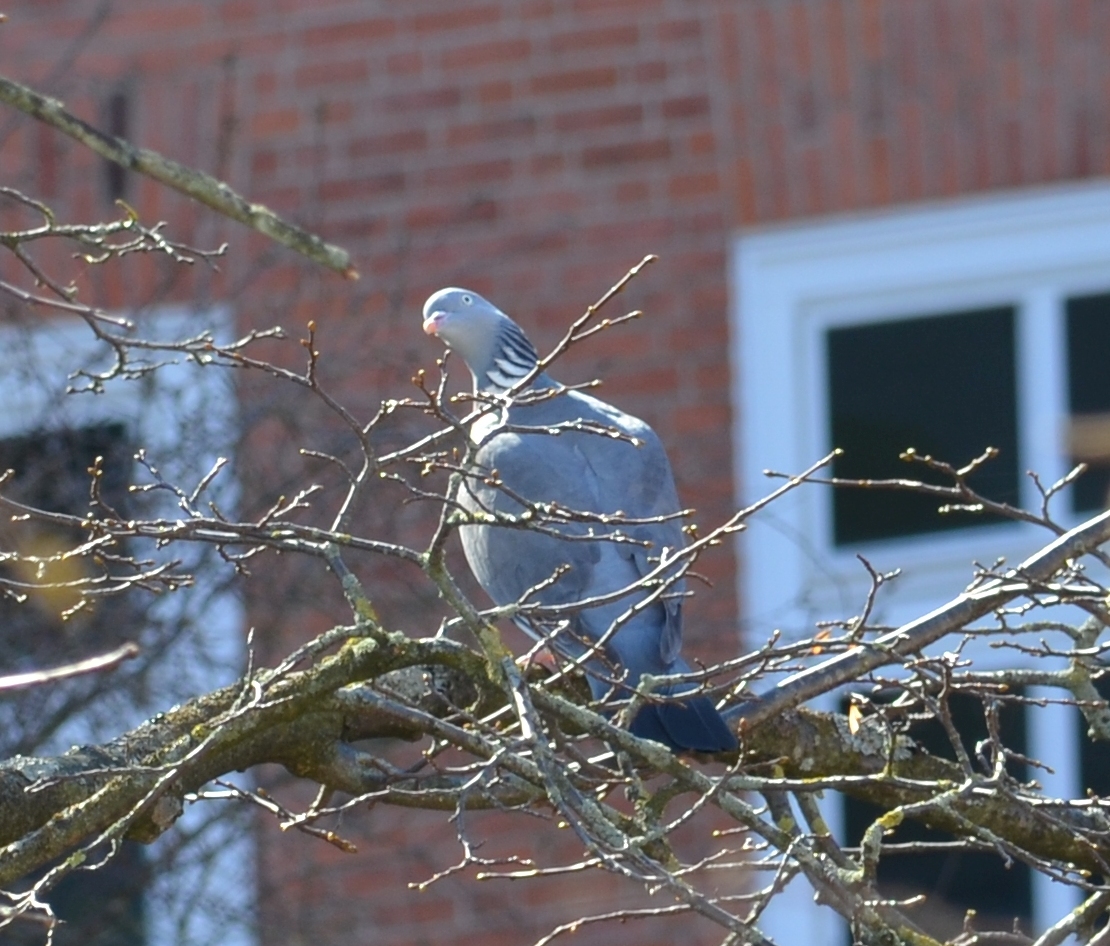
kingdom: Animalia
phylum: Chordata
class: Aves
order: Columbiformes
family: Columbidae
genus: Columba
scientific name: Columba palumbus
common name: Common wood pigeon
